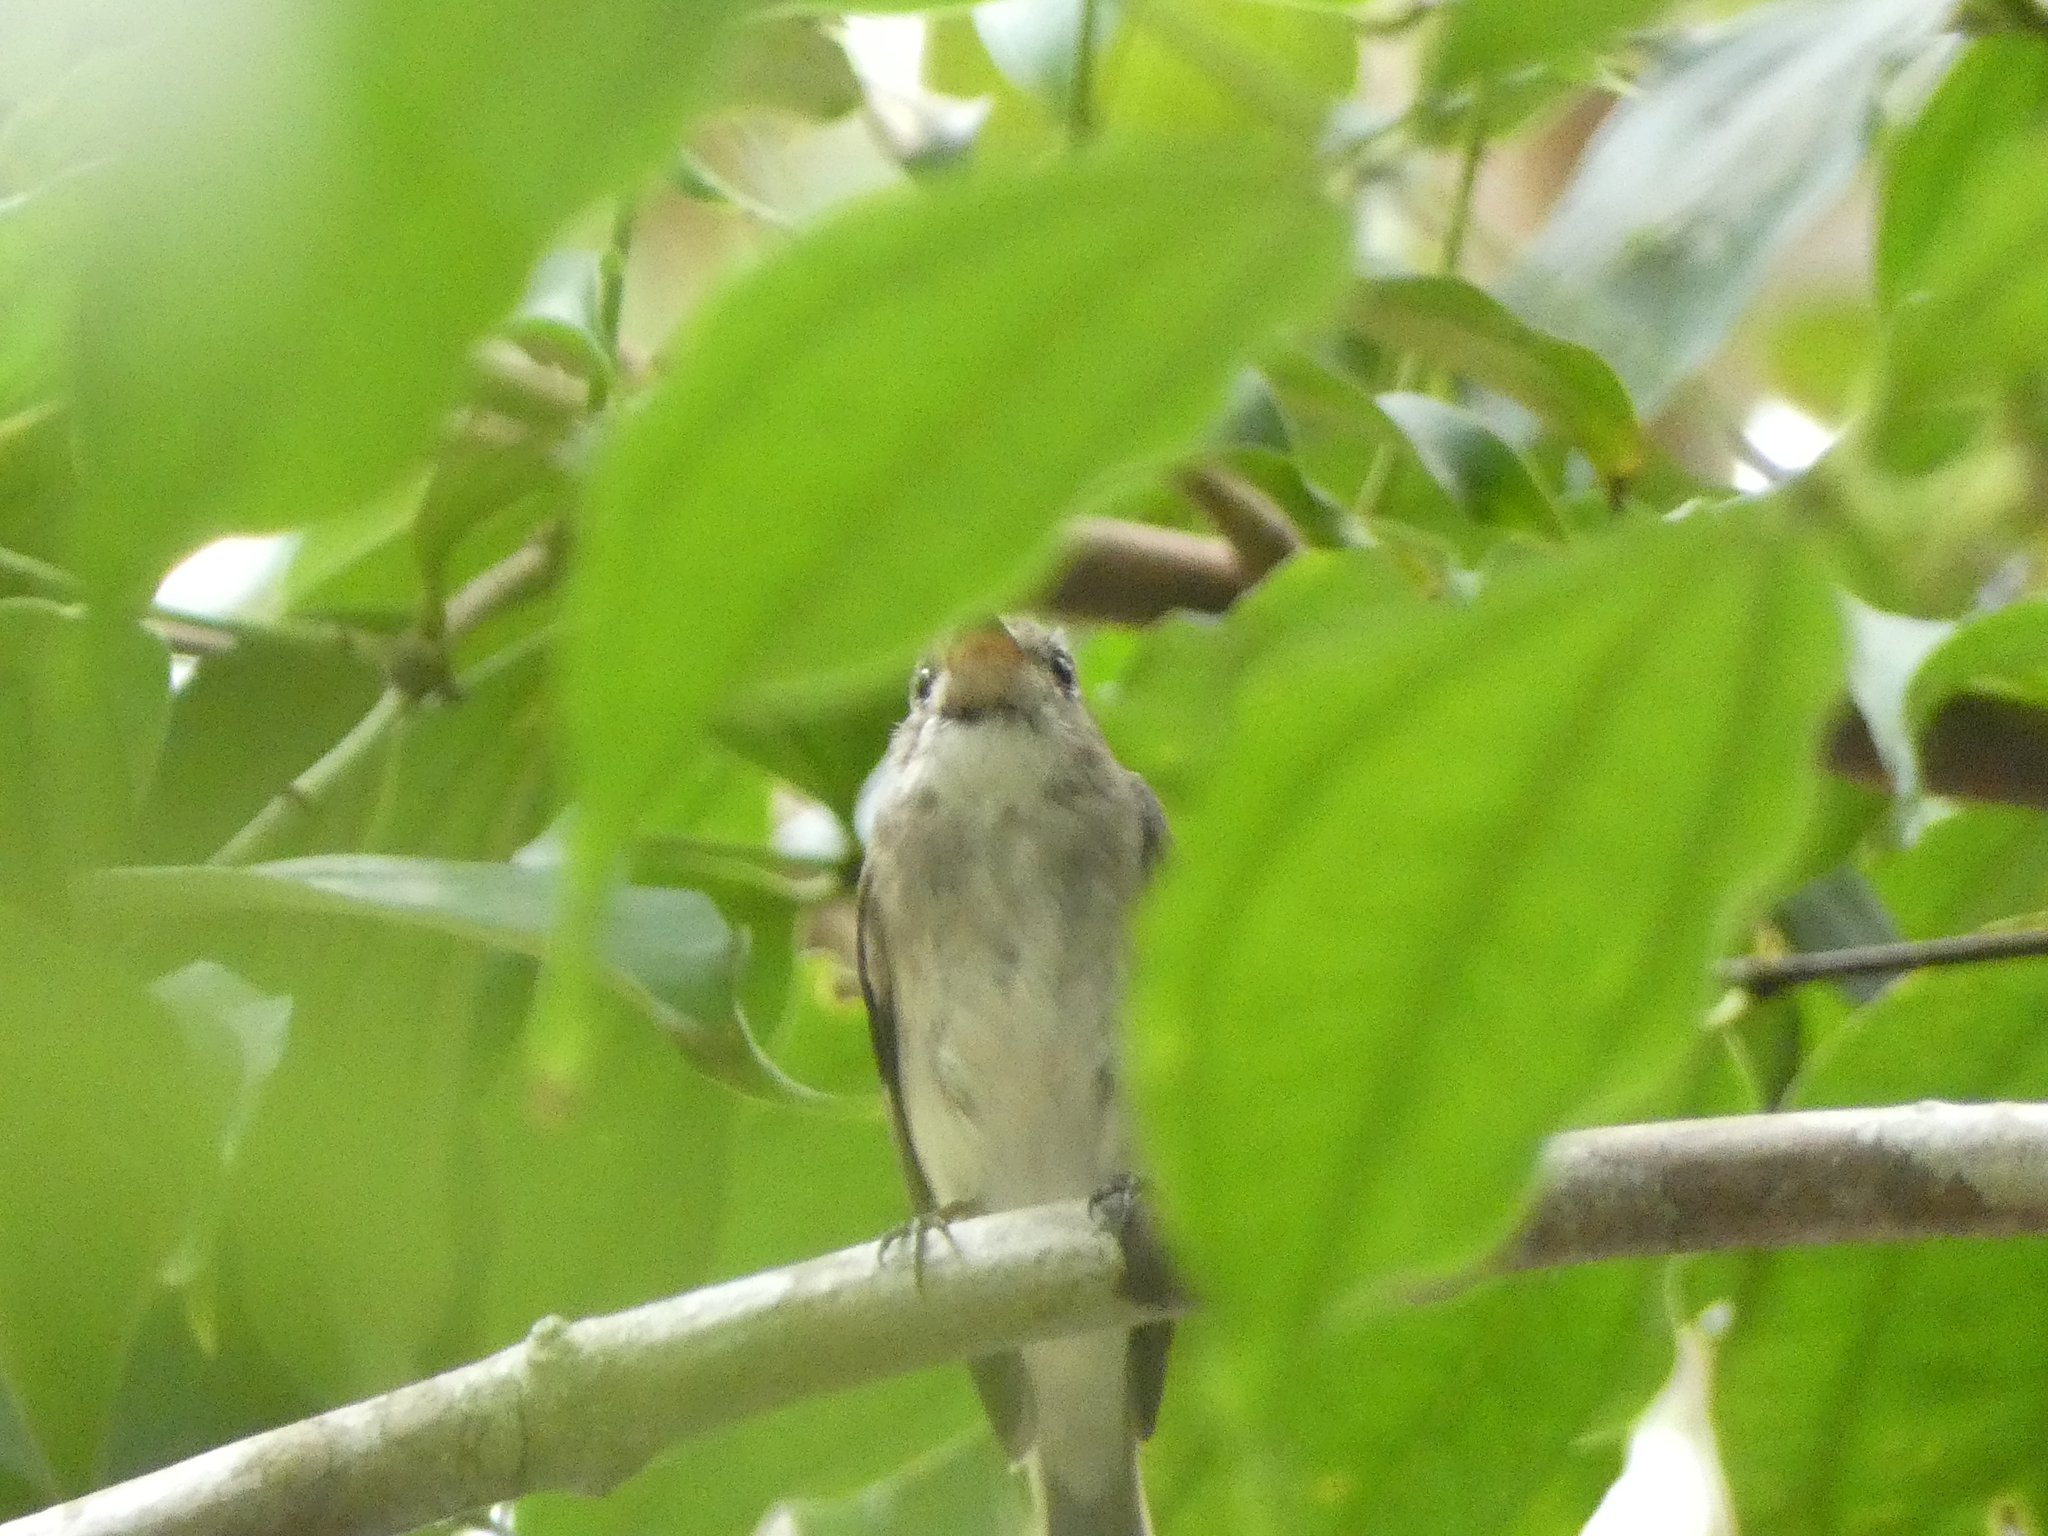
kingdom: Animalia
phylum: Chordata
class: Aves
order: Passeriformes
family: Muscicapidae
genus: Muscicapa
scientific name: Muscicapa latirostris
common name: Asian brown flycatcher
